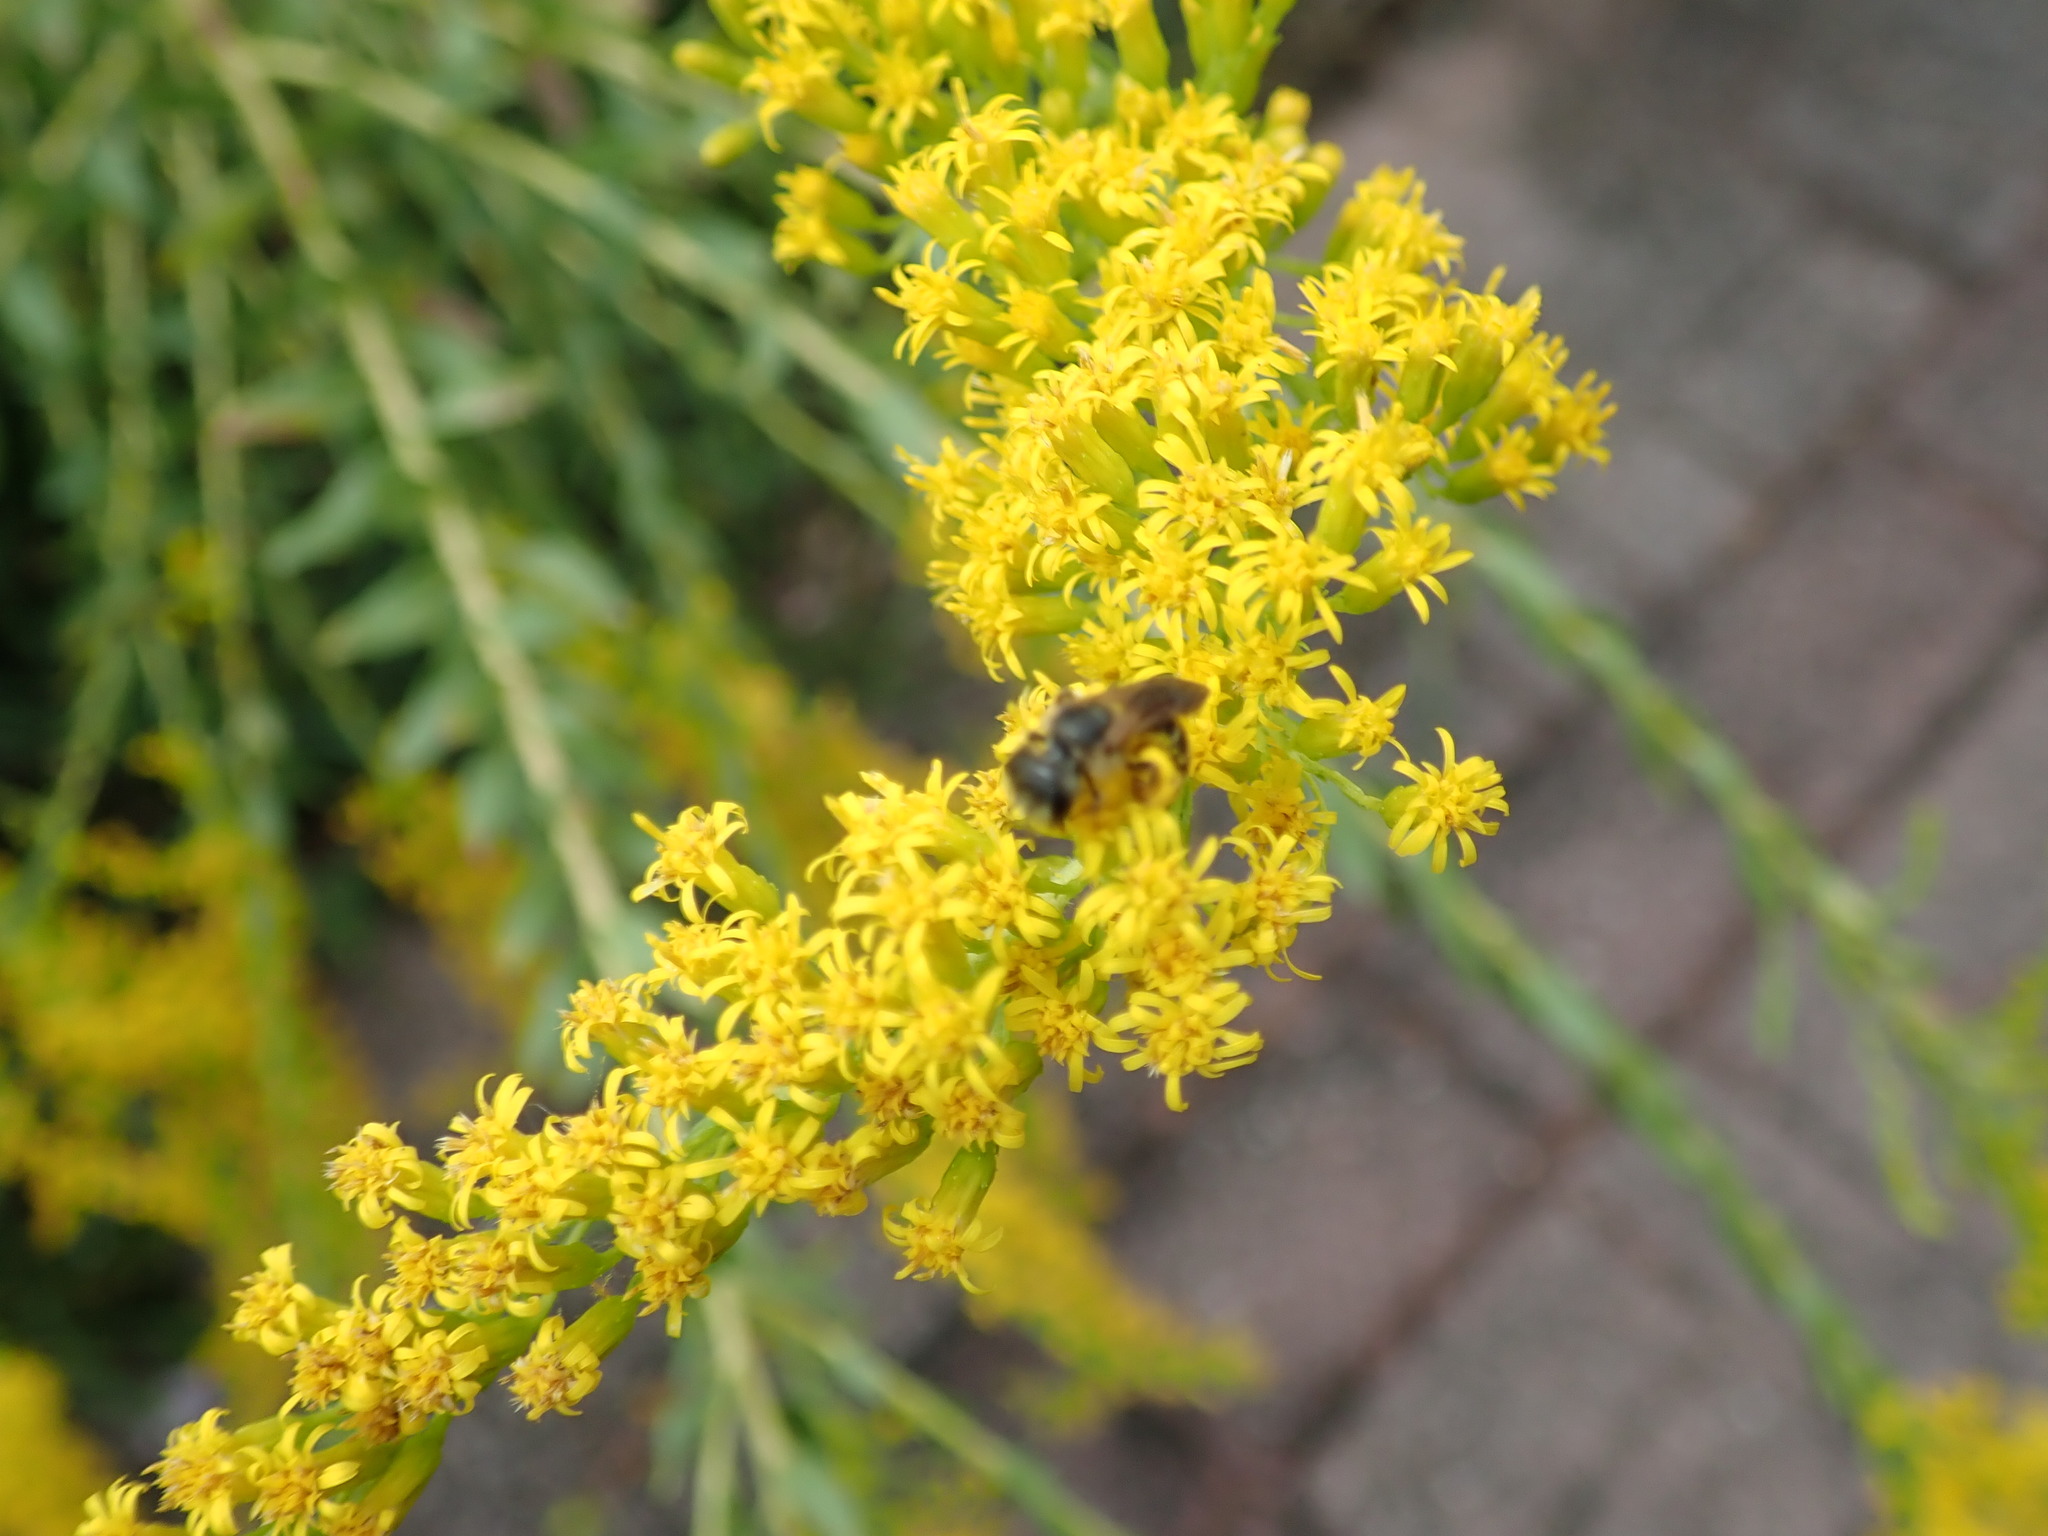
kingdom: Animalia
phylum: Arthropoda
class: Insecta
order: Hymenoptera
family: Halictidae
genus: Halictus
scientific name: Halictus poeyi
